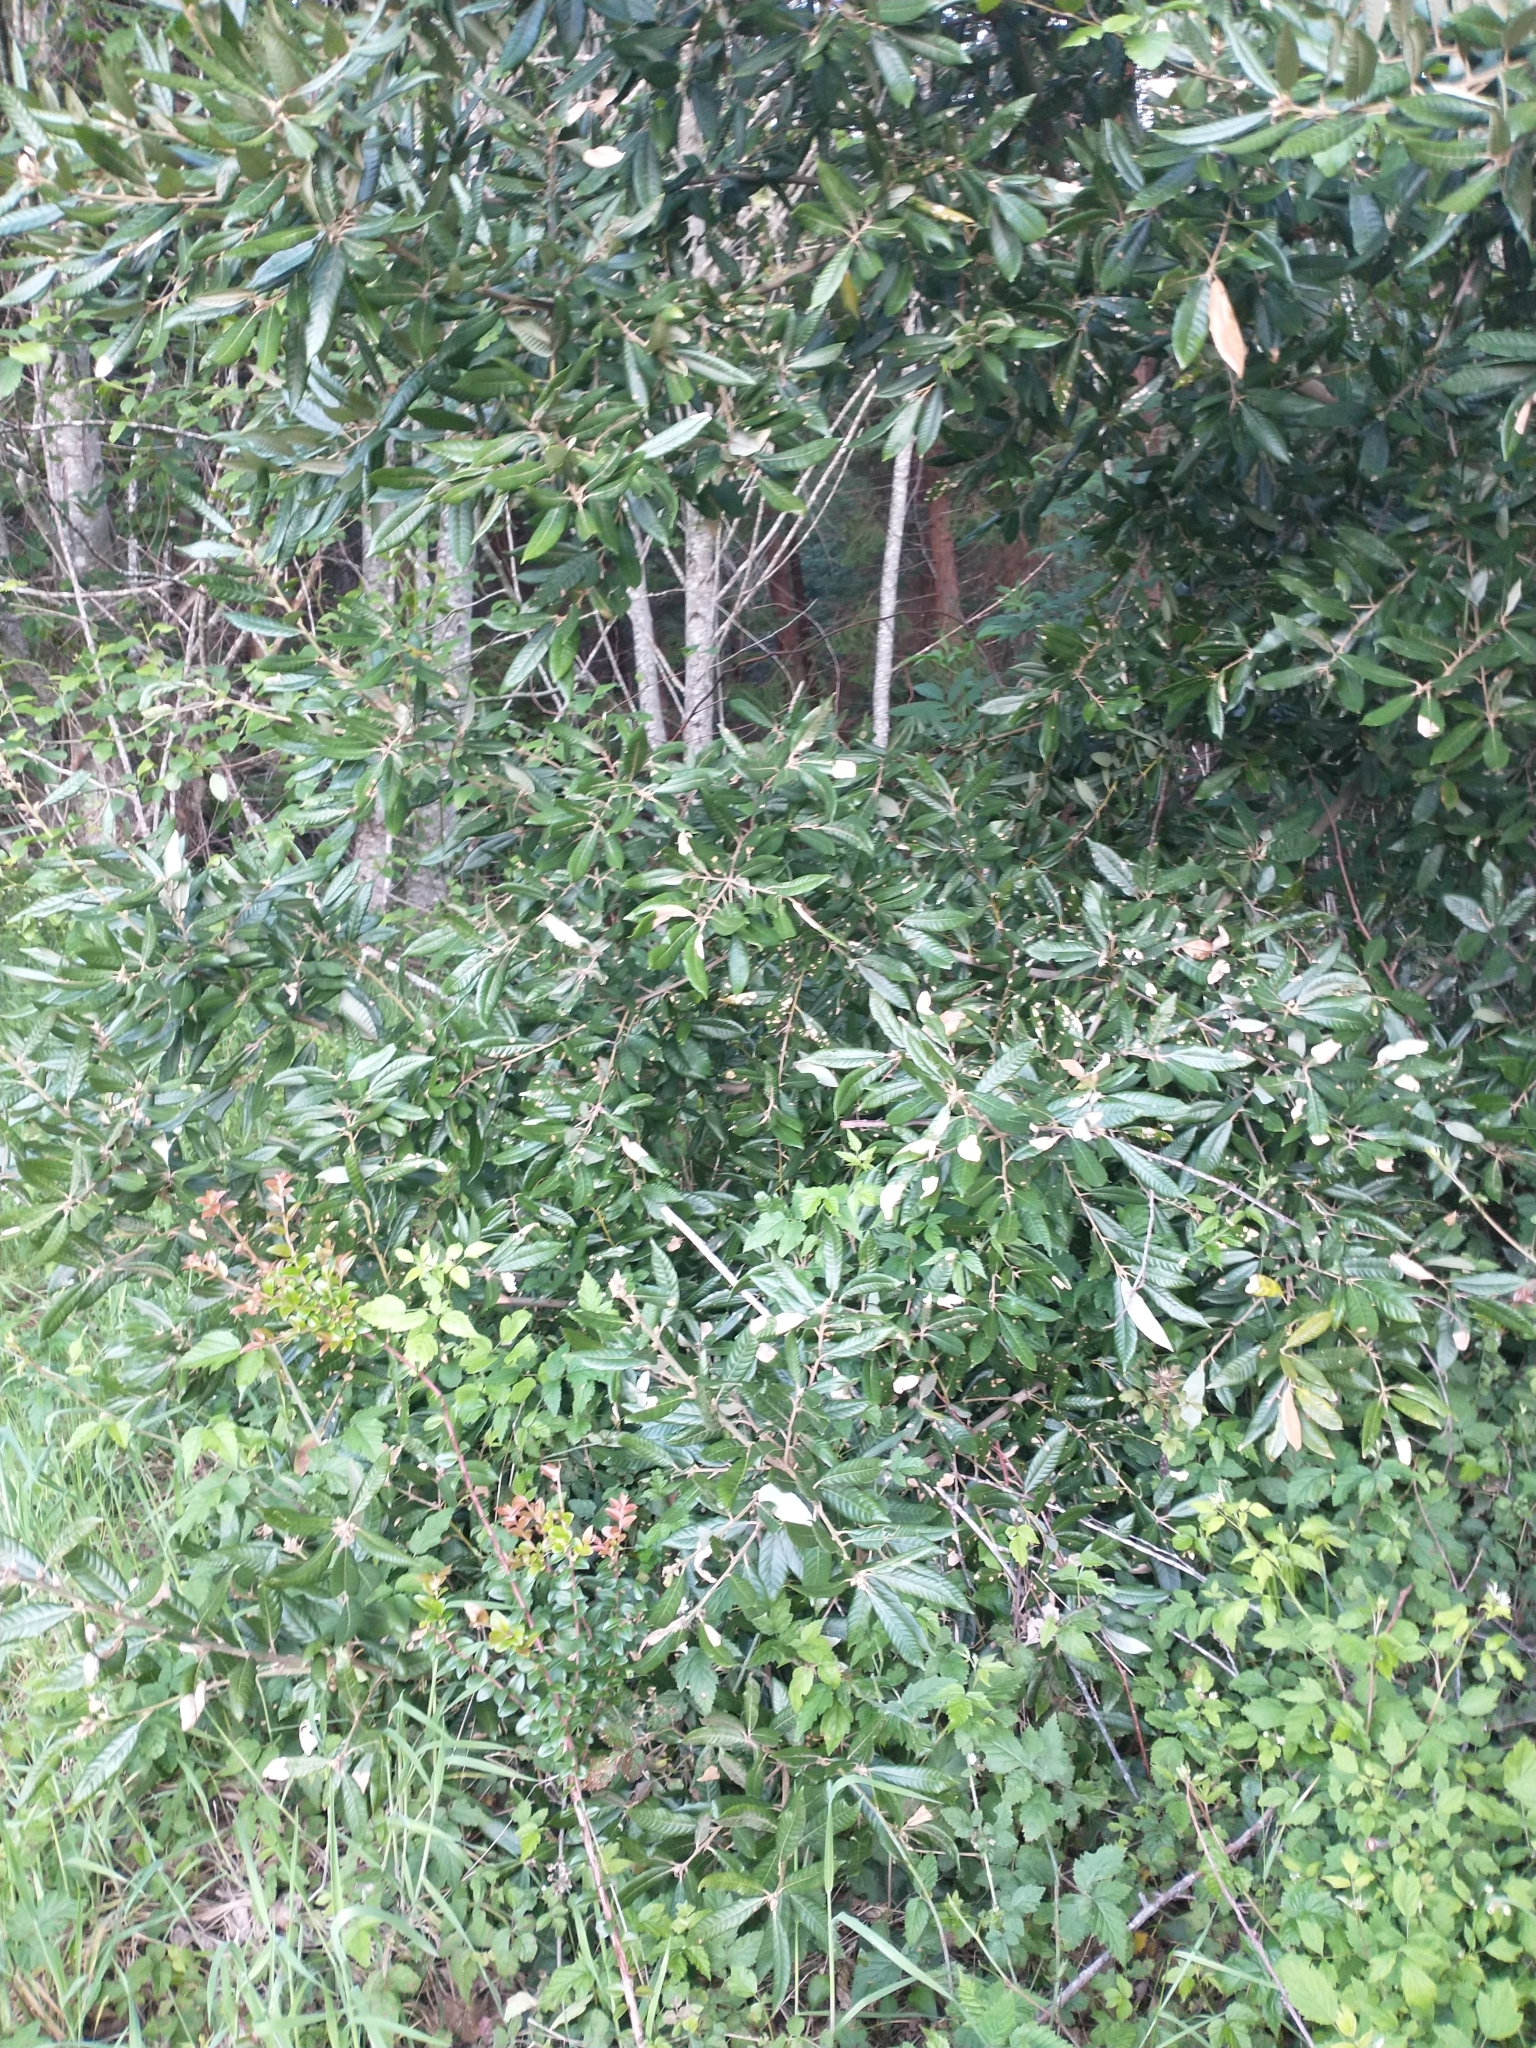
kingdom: Plantae
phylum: Tracheophyta
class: Magnoliopsida
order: Fagales
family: Fagaceae
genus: Notholithocarpus
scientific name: Notholithocarpus densiflorus
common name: Tan bark oak
